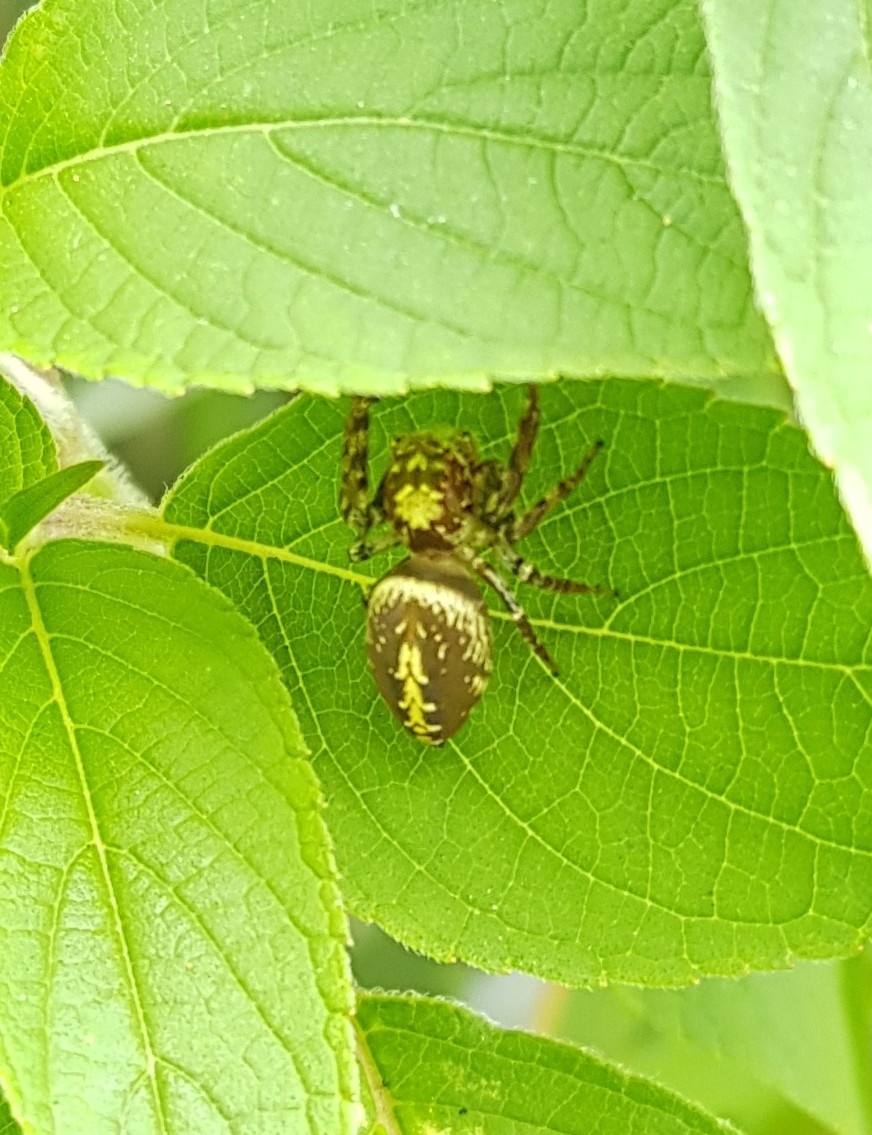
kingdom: Animalia
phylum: Arthropoda
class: Arachnida
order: Araneae
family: Salticidae
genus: Opisthoncus
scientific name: Opisthoncus quadratarius
